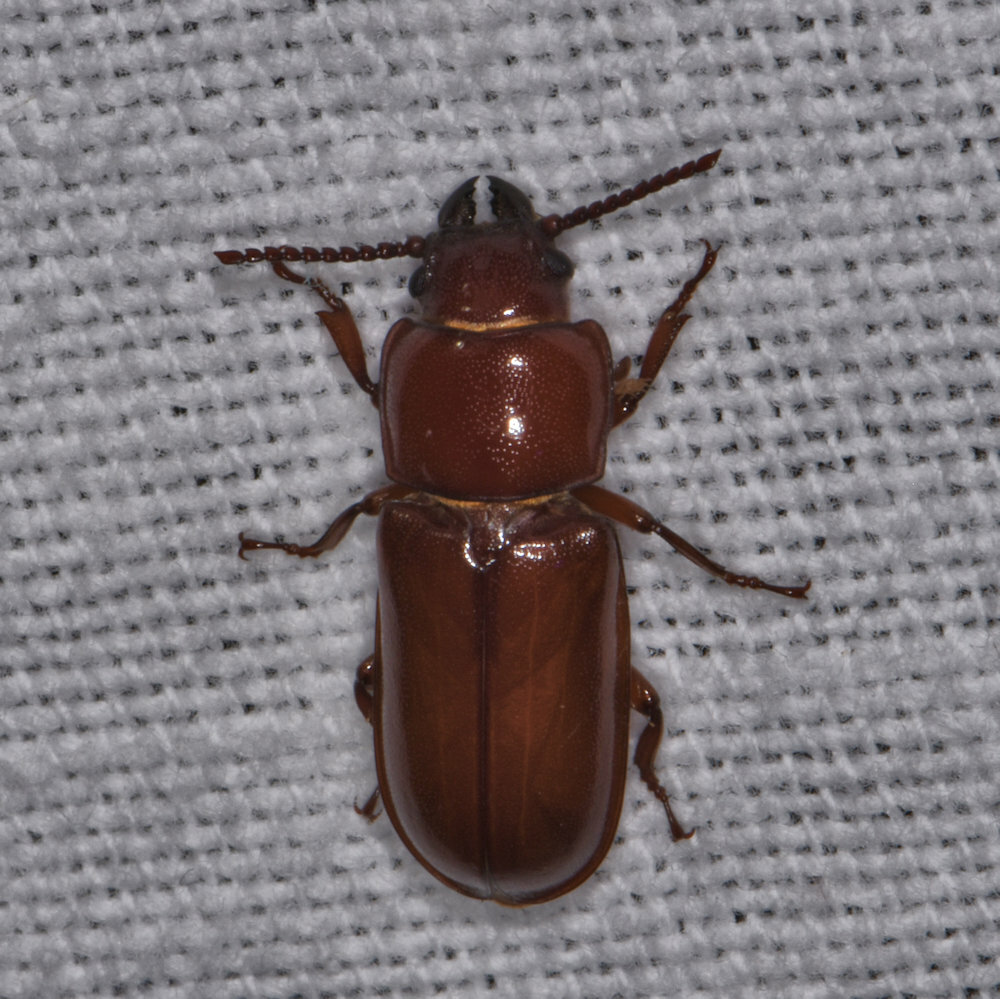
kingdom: Animalia
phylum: Arthropoda
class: Insecta
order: Coleoptera
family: Cerambycidae
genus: Neandra
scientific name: Neandra brunnea
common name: Pole borer
